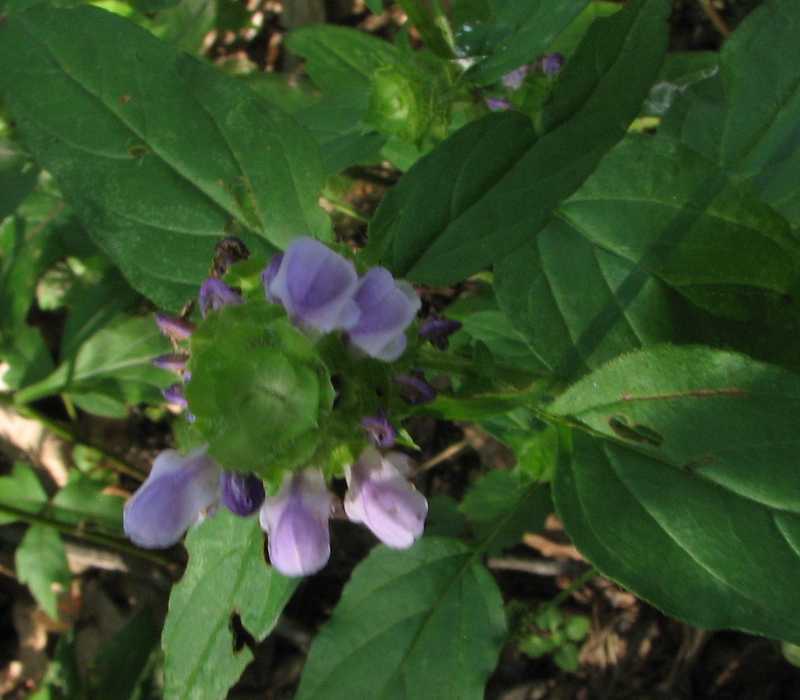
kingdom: Plantae
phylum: Tracheophyta
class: Magnoliopsida
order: Lamiales
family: Lamiaceae
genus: Prunella
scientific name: Prunella vulgaris
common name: Heal-all
